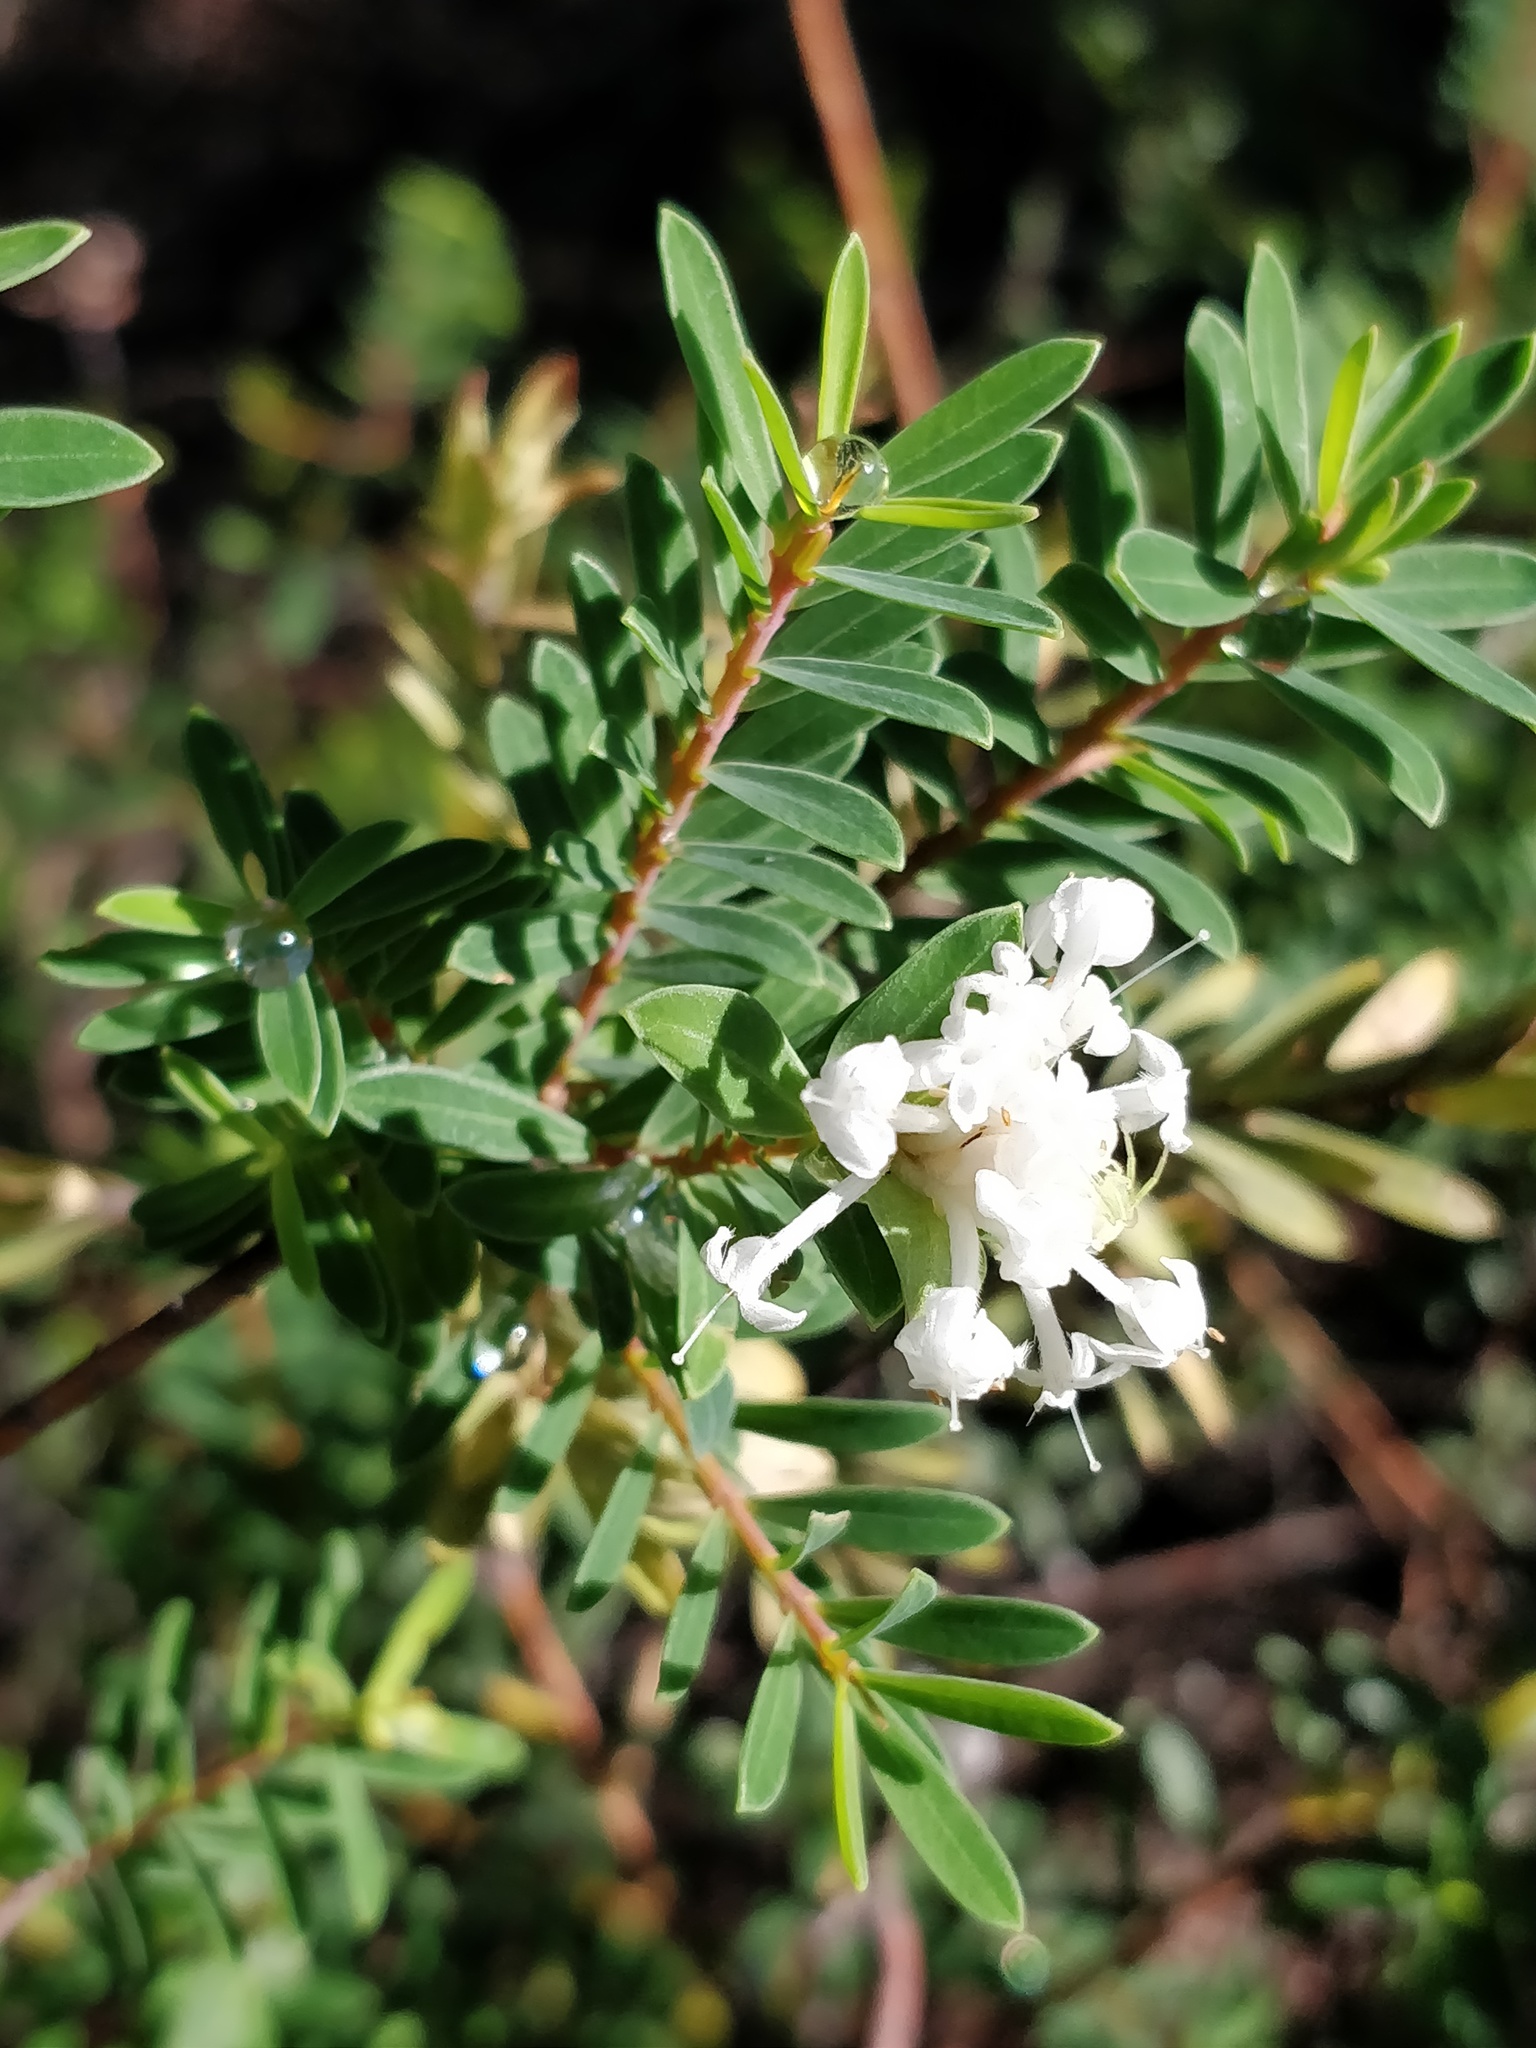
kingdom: Plantae
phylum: Tracheophyta
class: Magnoliopsida
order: Malvales
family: Thymelaeaceae
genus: Pimelea
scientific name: Pimelea linifolia
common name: Queen-of-the-bush
